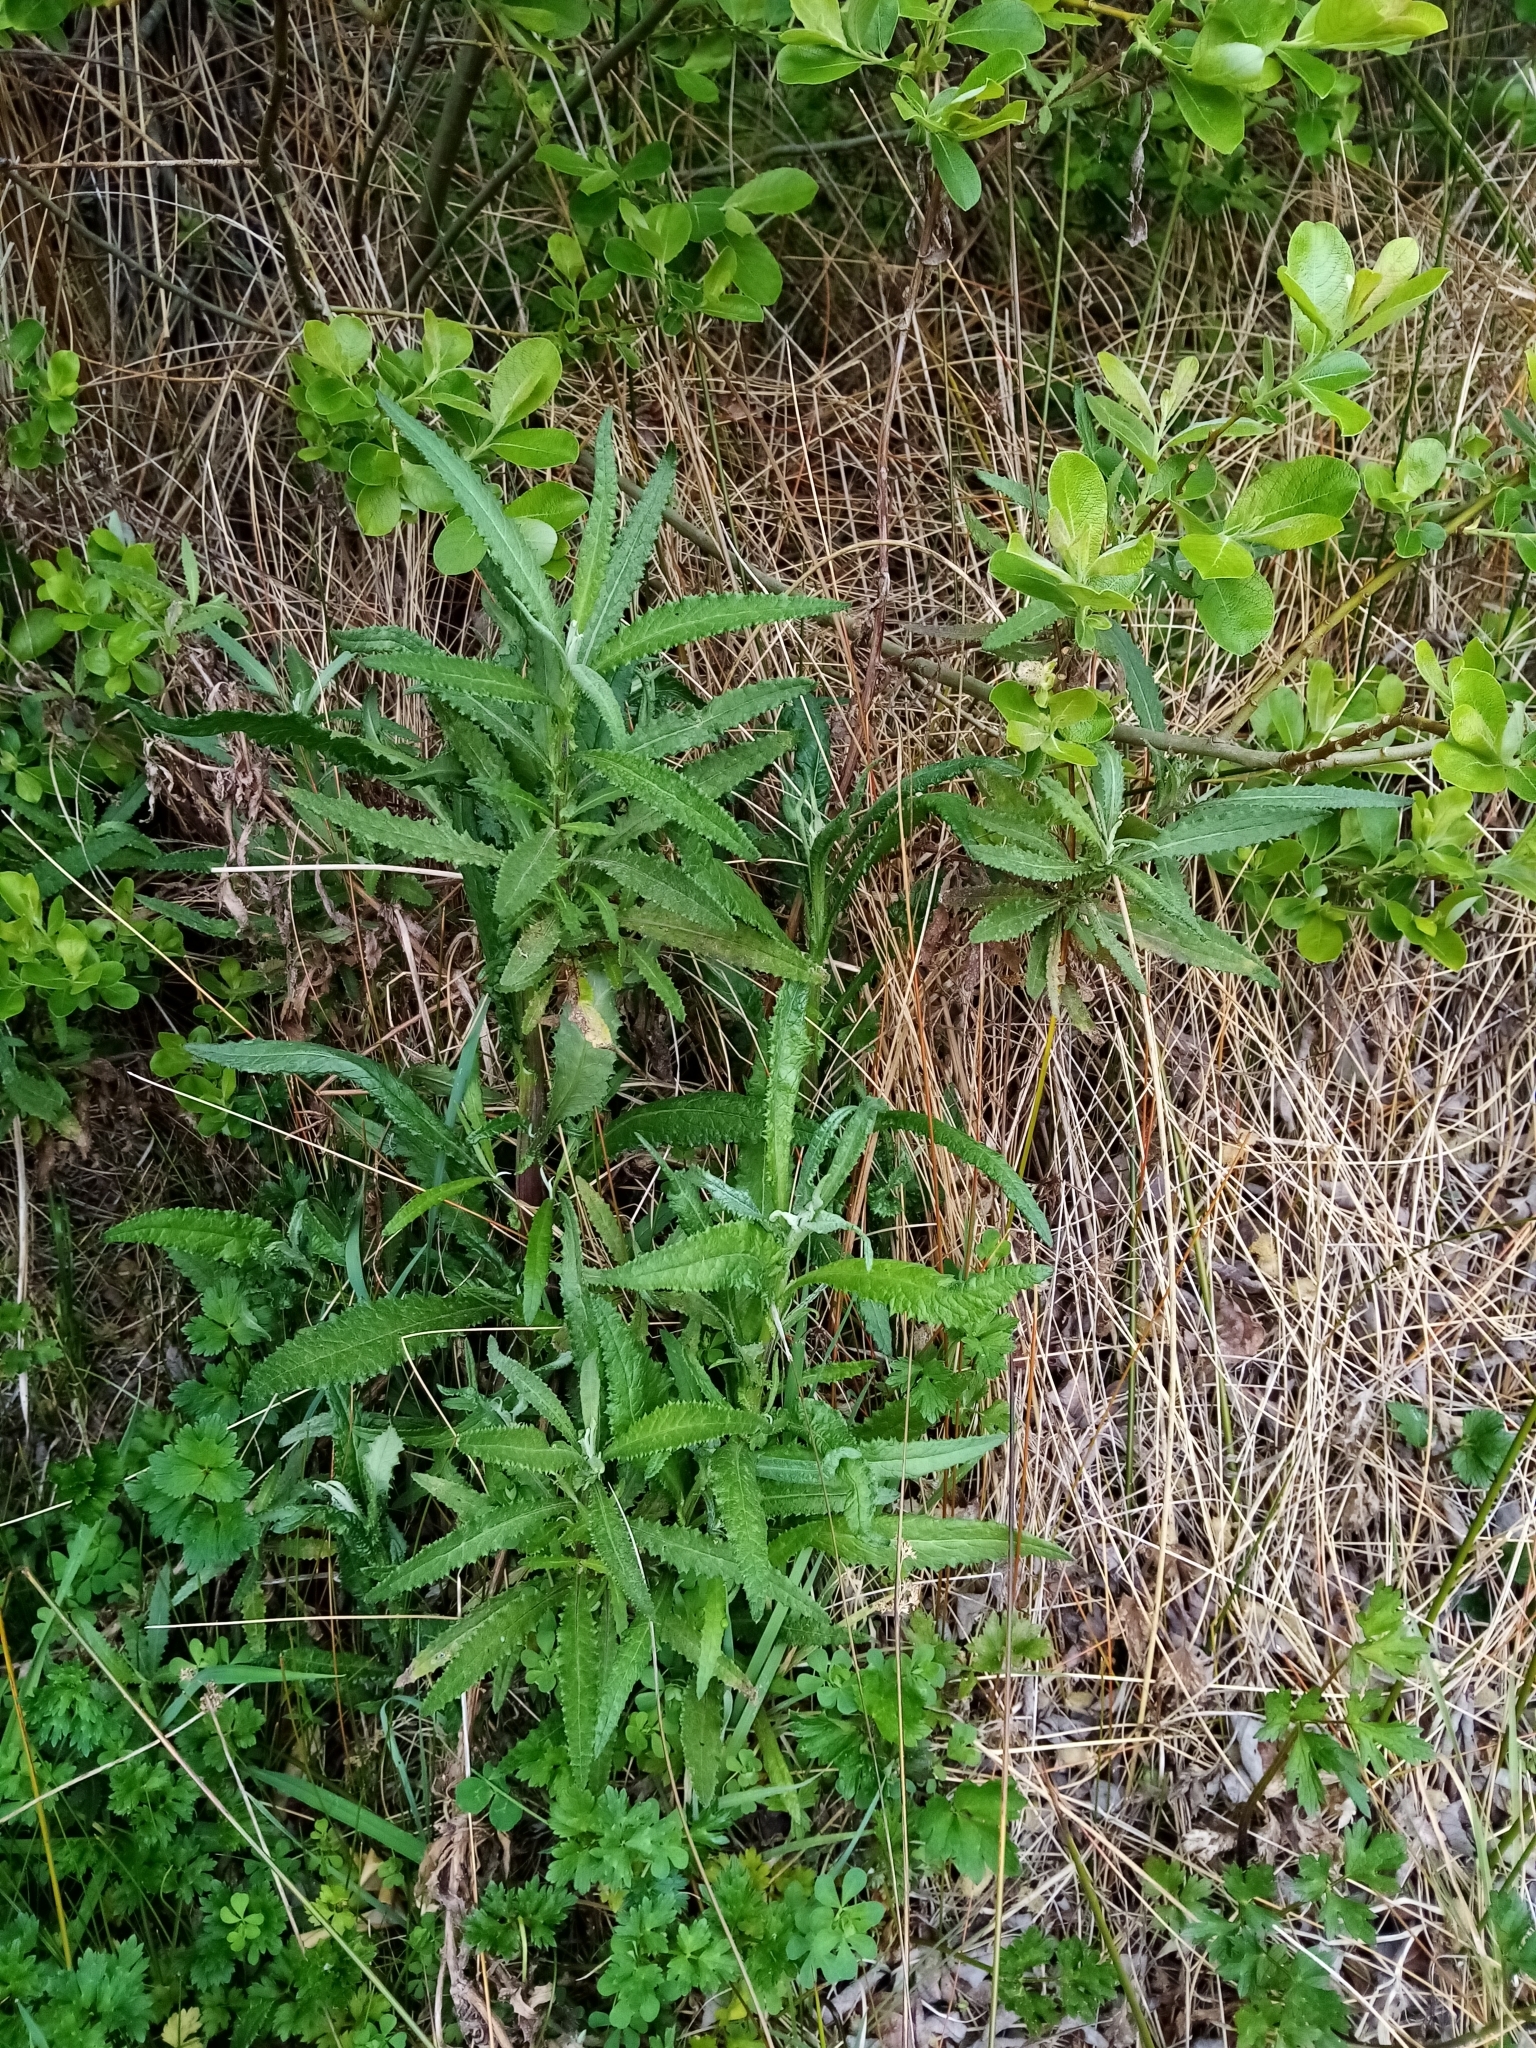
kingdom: Plantae
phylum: Tracheophyta
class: Magnoliopsida
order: Asterales
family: Asteraceae
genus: Senecio
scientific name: Senecio minimus
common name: Toothed fireweed
